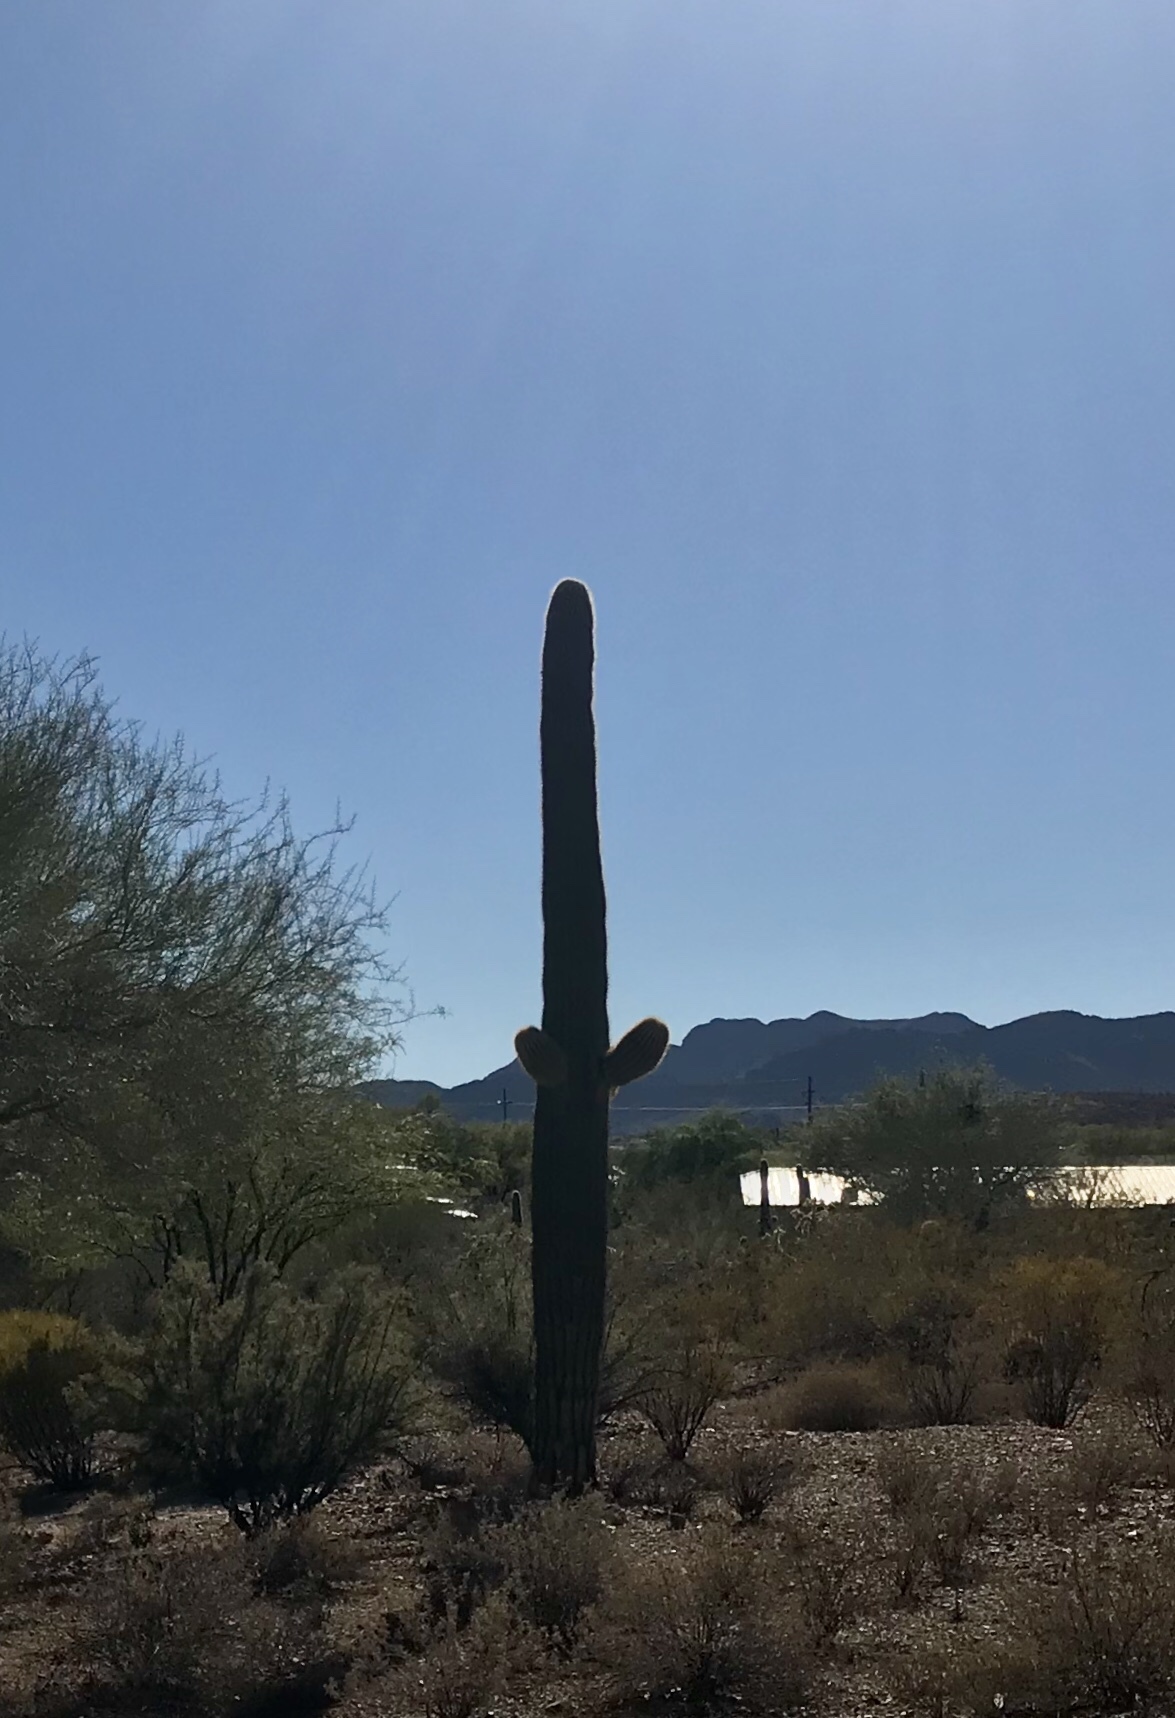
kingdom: Plantae
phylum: Tracheophyta
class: Magnoliopsida
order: Caryophyllales
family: Cactaceae
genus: Carnegiea
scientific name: Carnegiea gigantea
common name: Saguaro
